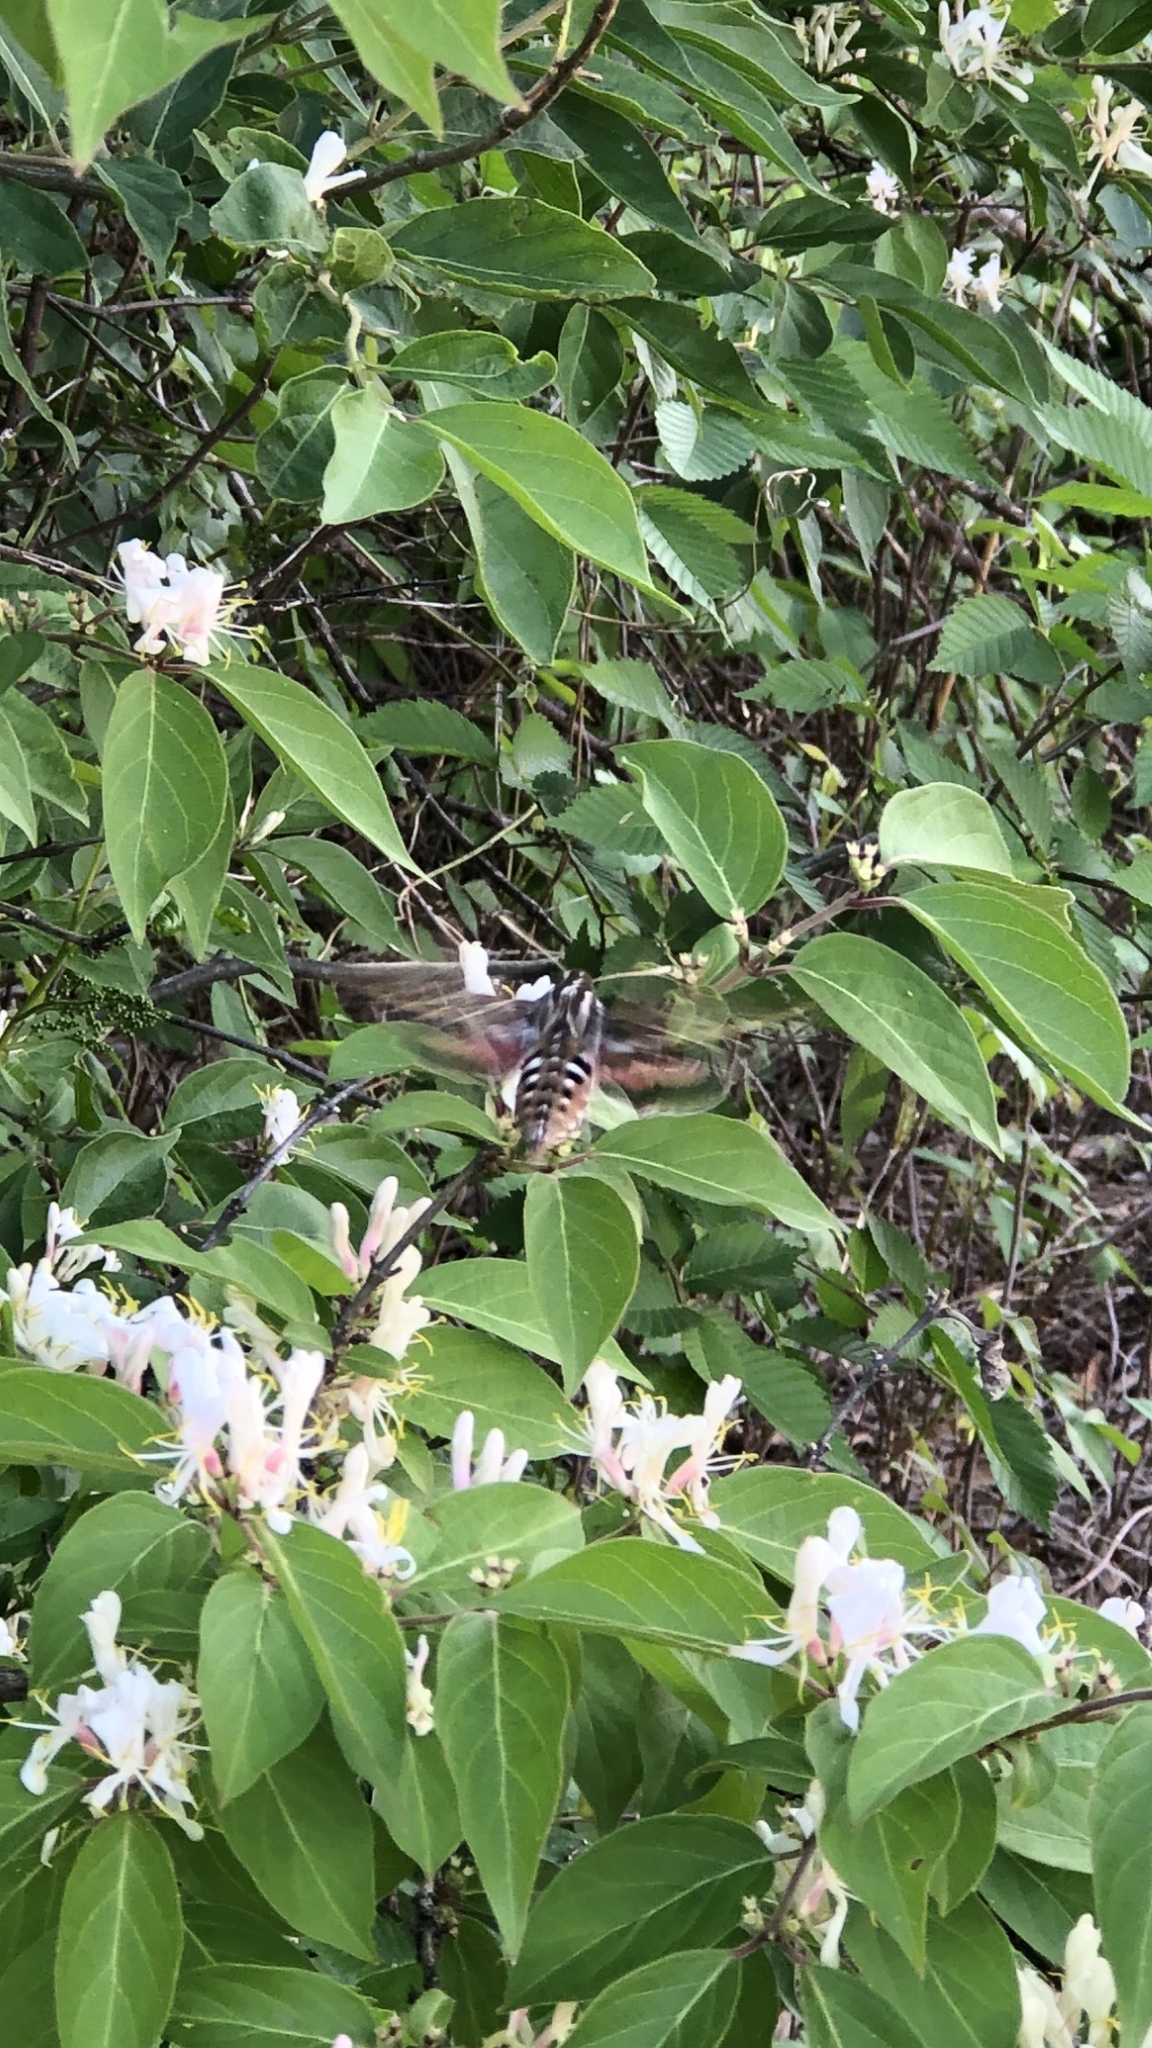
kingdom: Animalia
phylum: Arthropoda
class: Insecta
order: Lepidoptera
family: Sphingidae
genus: Hyles
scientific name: Hyles lineata
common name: White-lined sphinx
